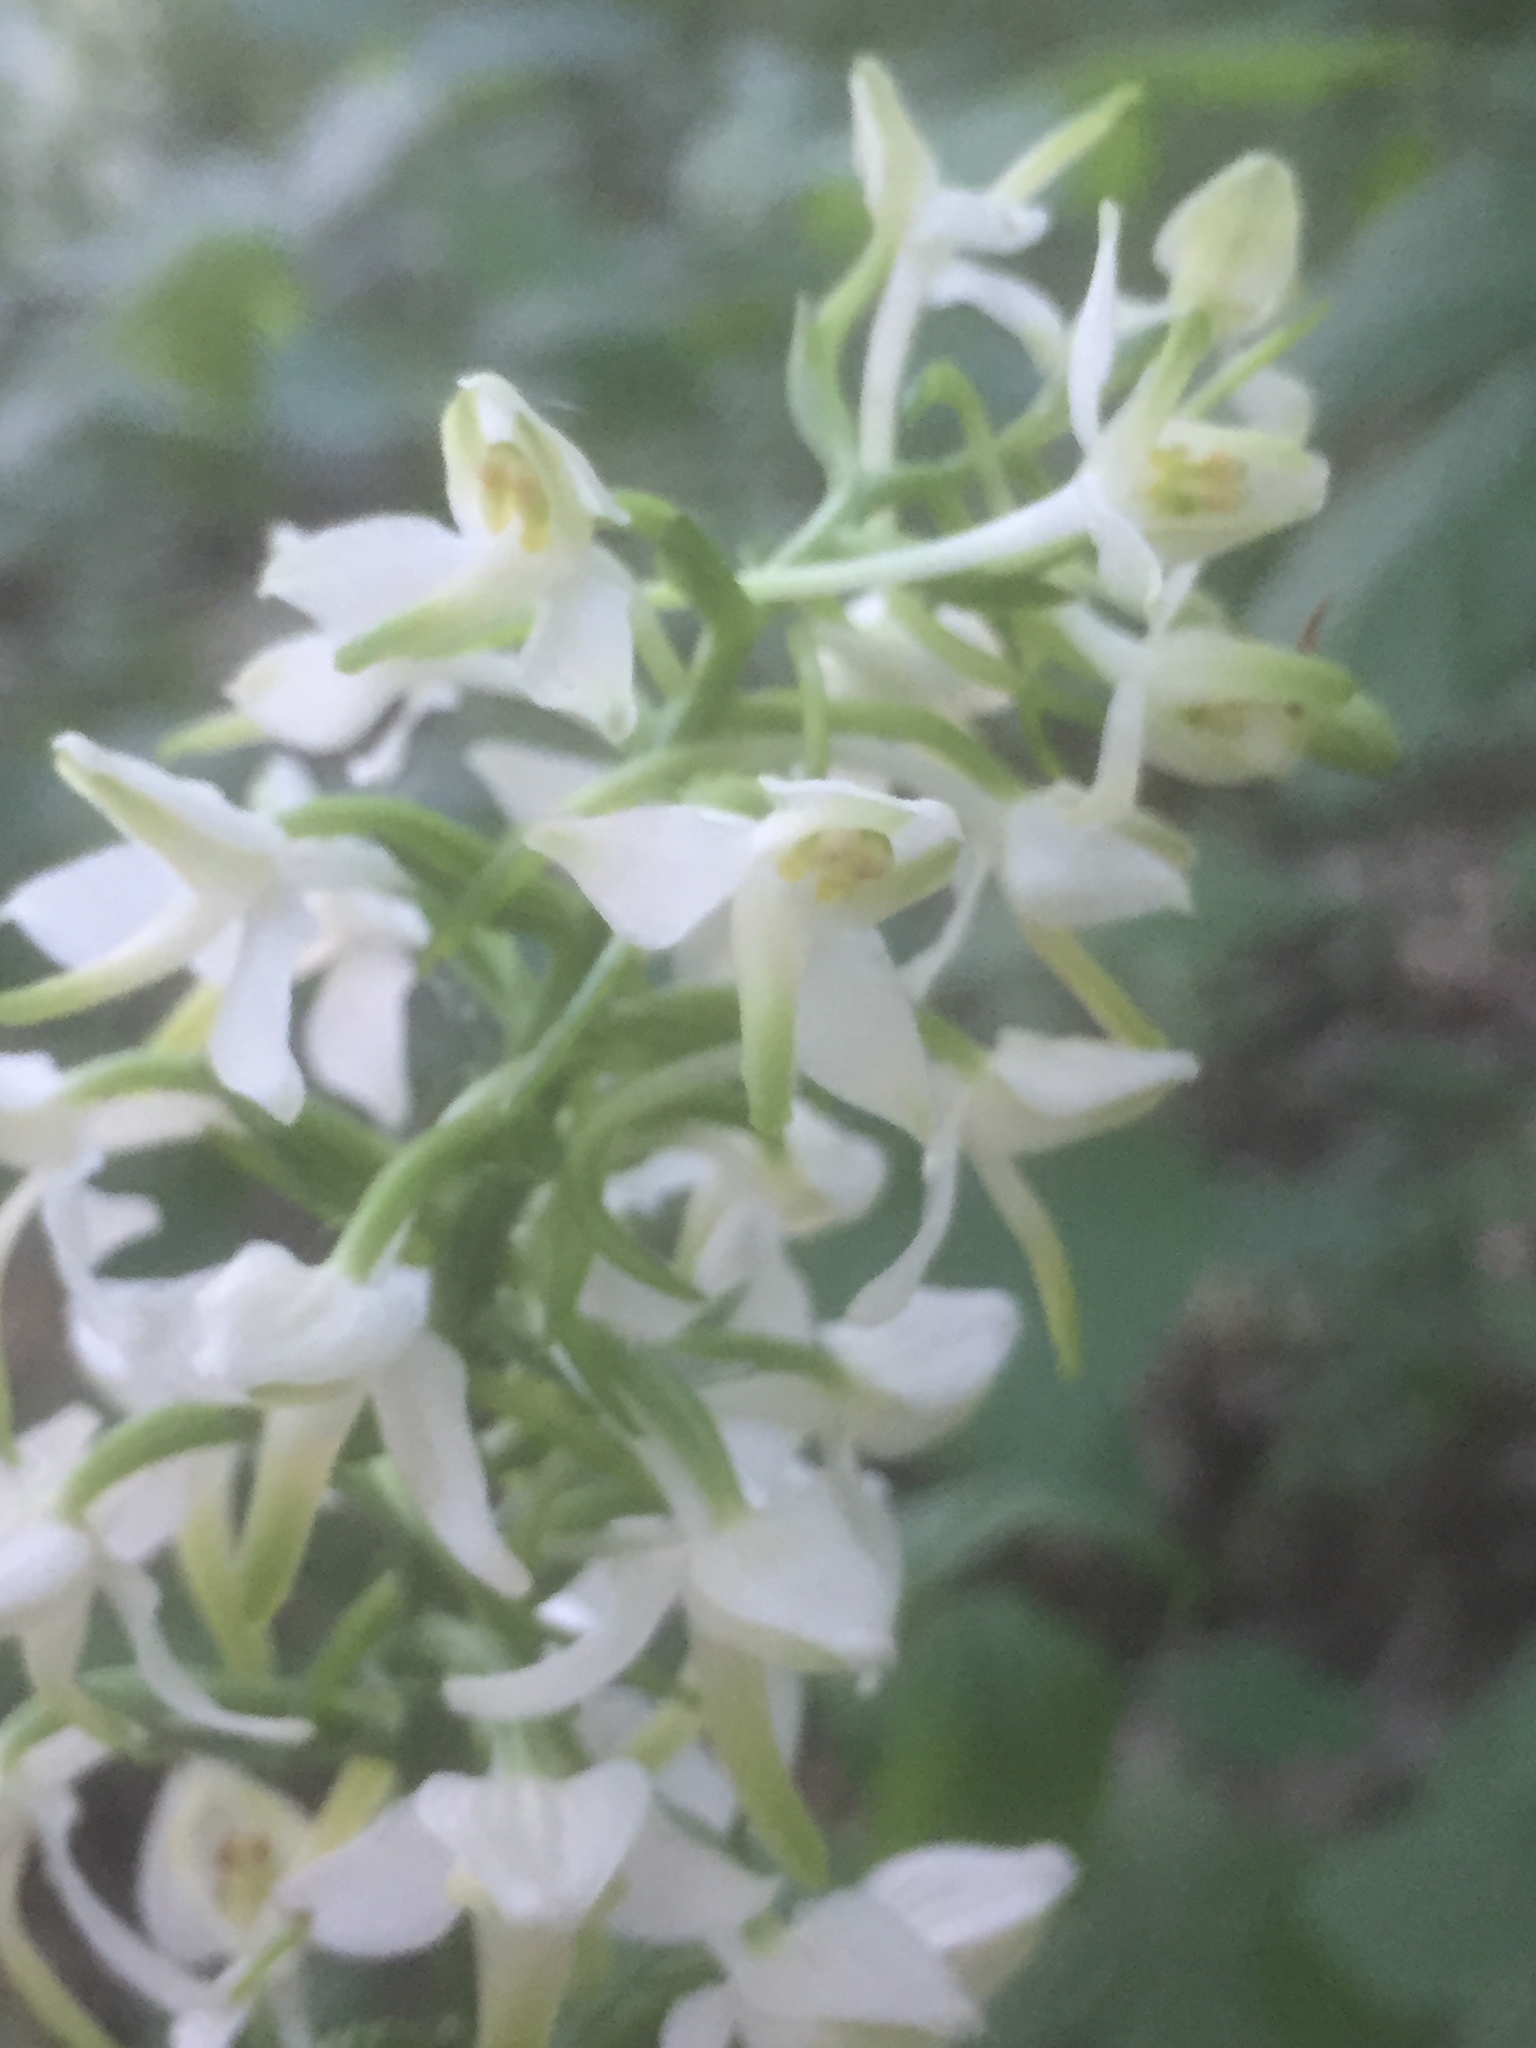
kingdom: Plantae
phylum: Tracheophyta
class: Liliopsida
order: Asparagales
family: Orchidaceae
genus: Platanthera
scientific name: Platanthera chlorantha
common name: Greater butterfly-orchid
